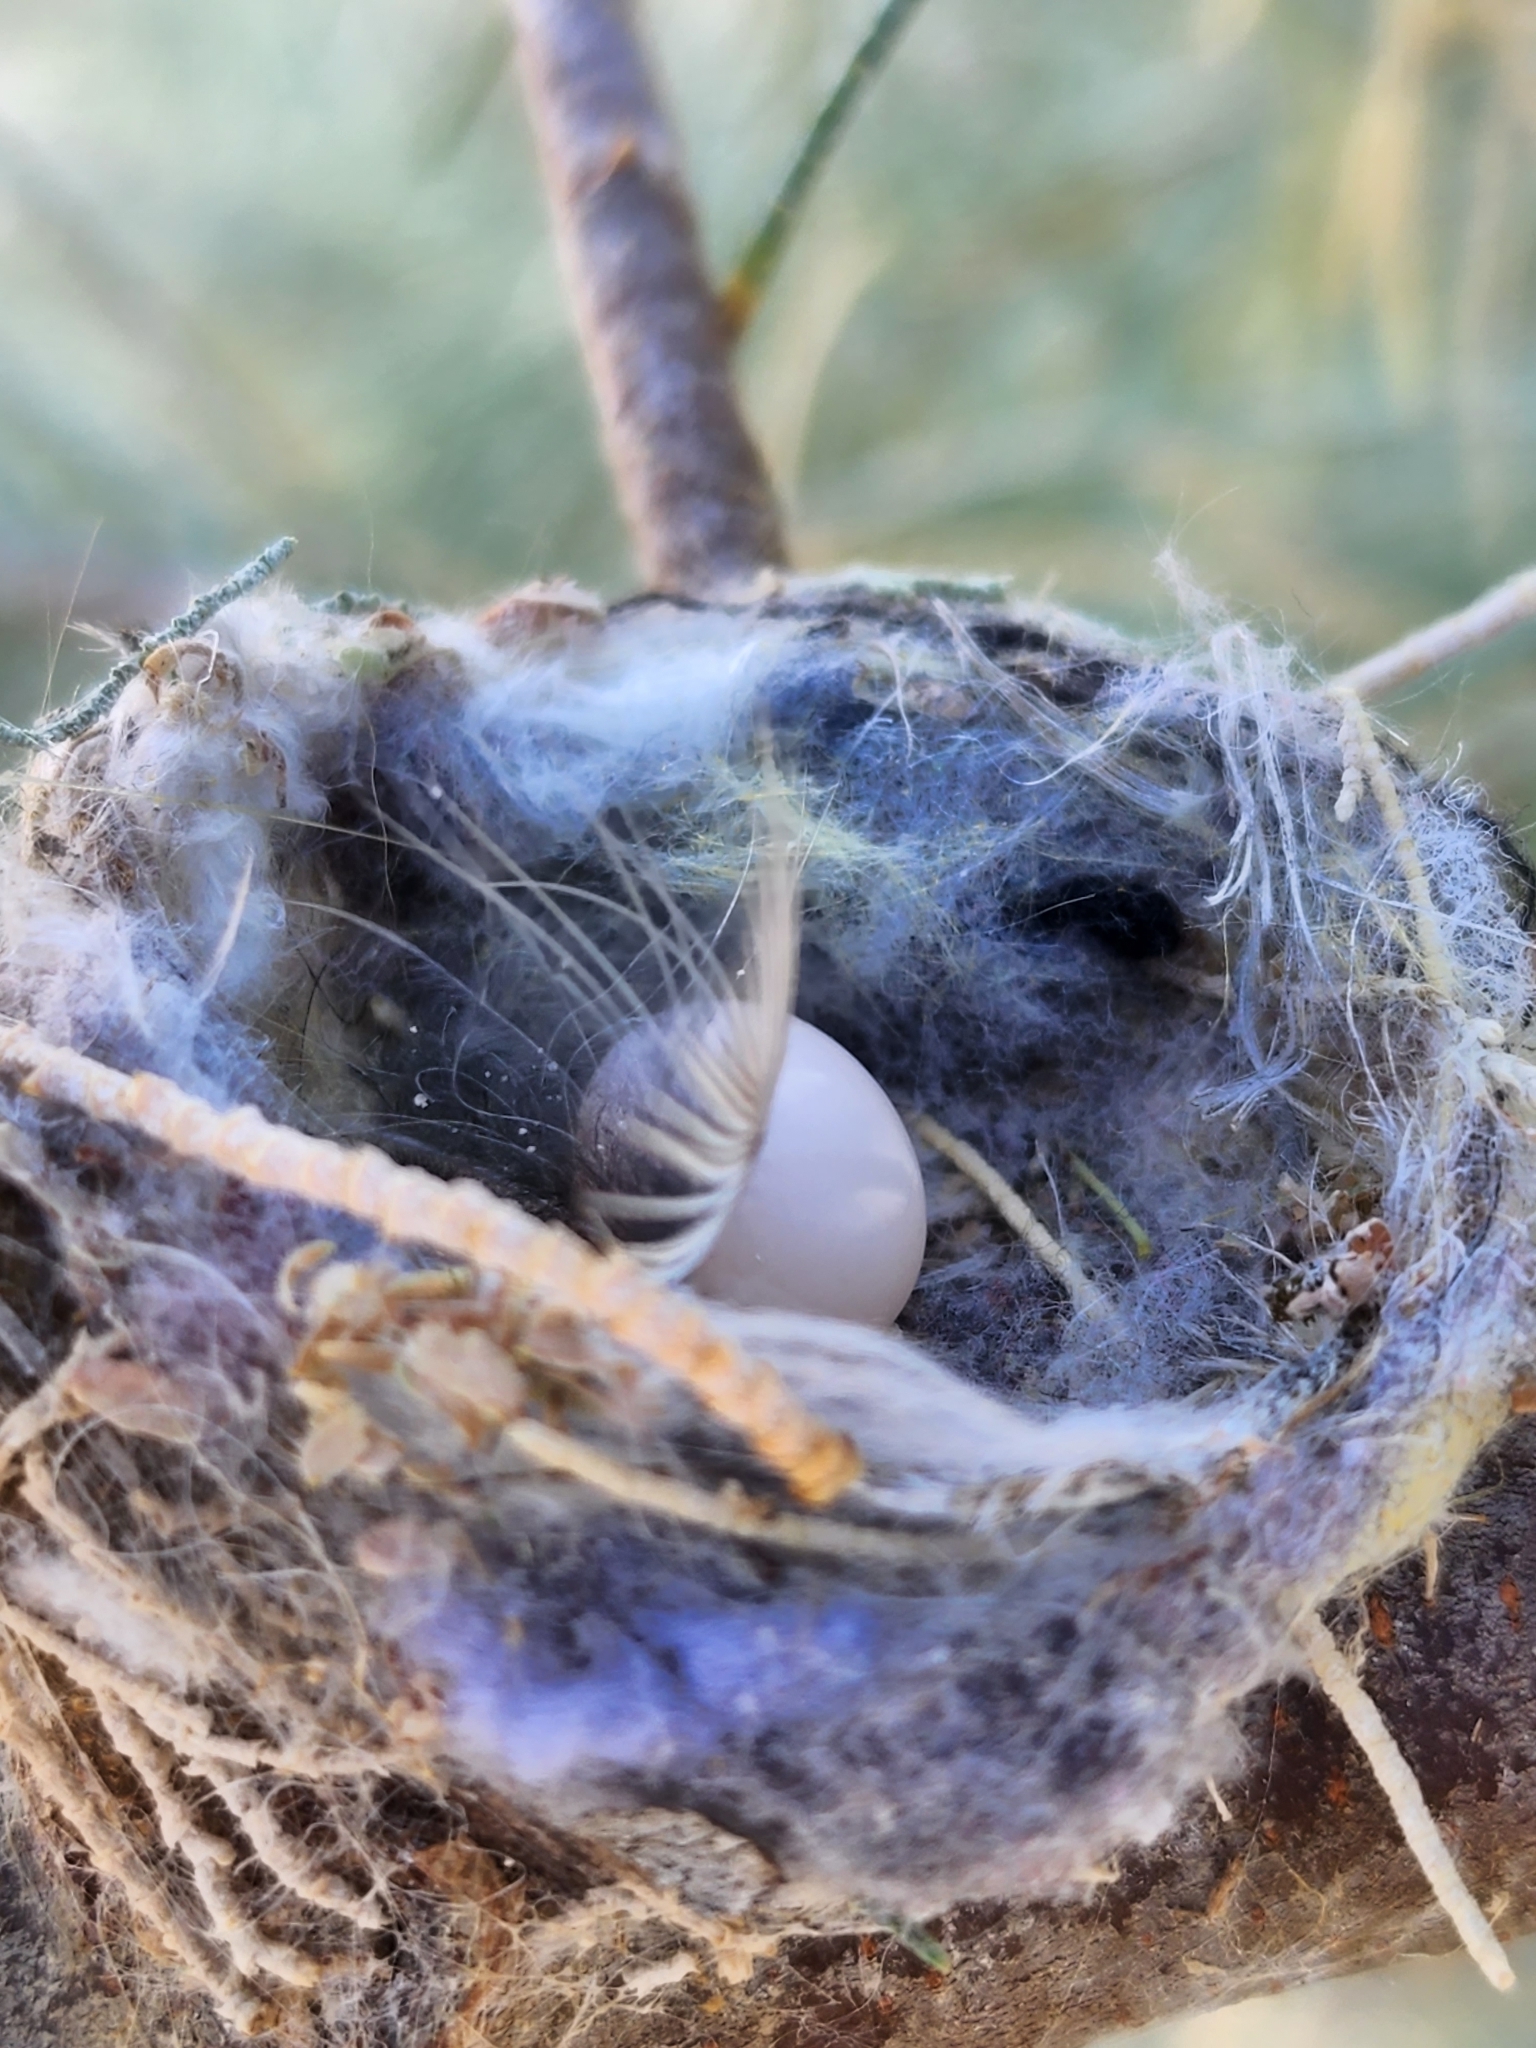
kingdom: Animalia
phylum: Chordata
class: Aves
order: Apodiformes
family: Trochilidae
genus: Calypte
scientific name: Calypte costae
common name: Costa's hummingbird
